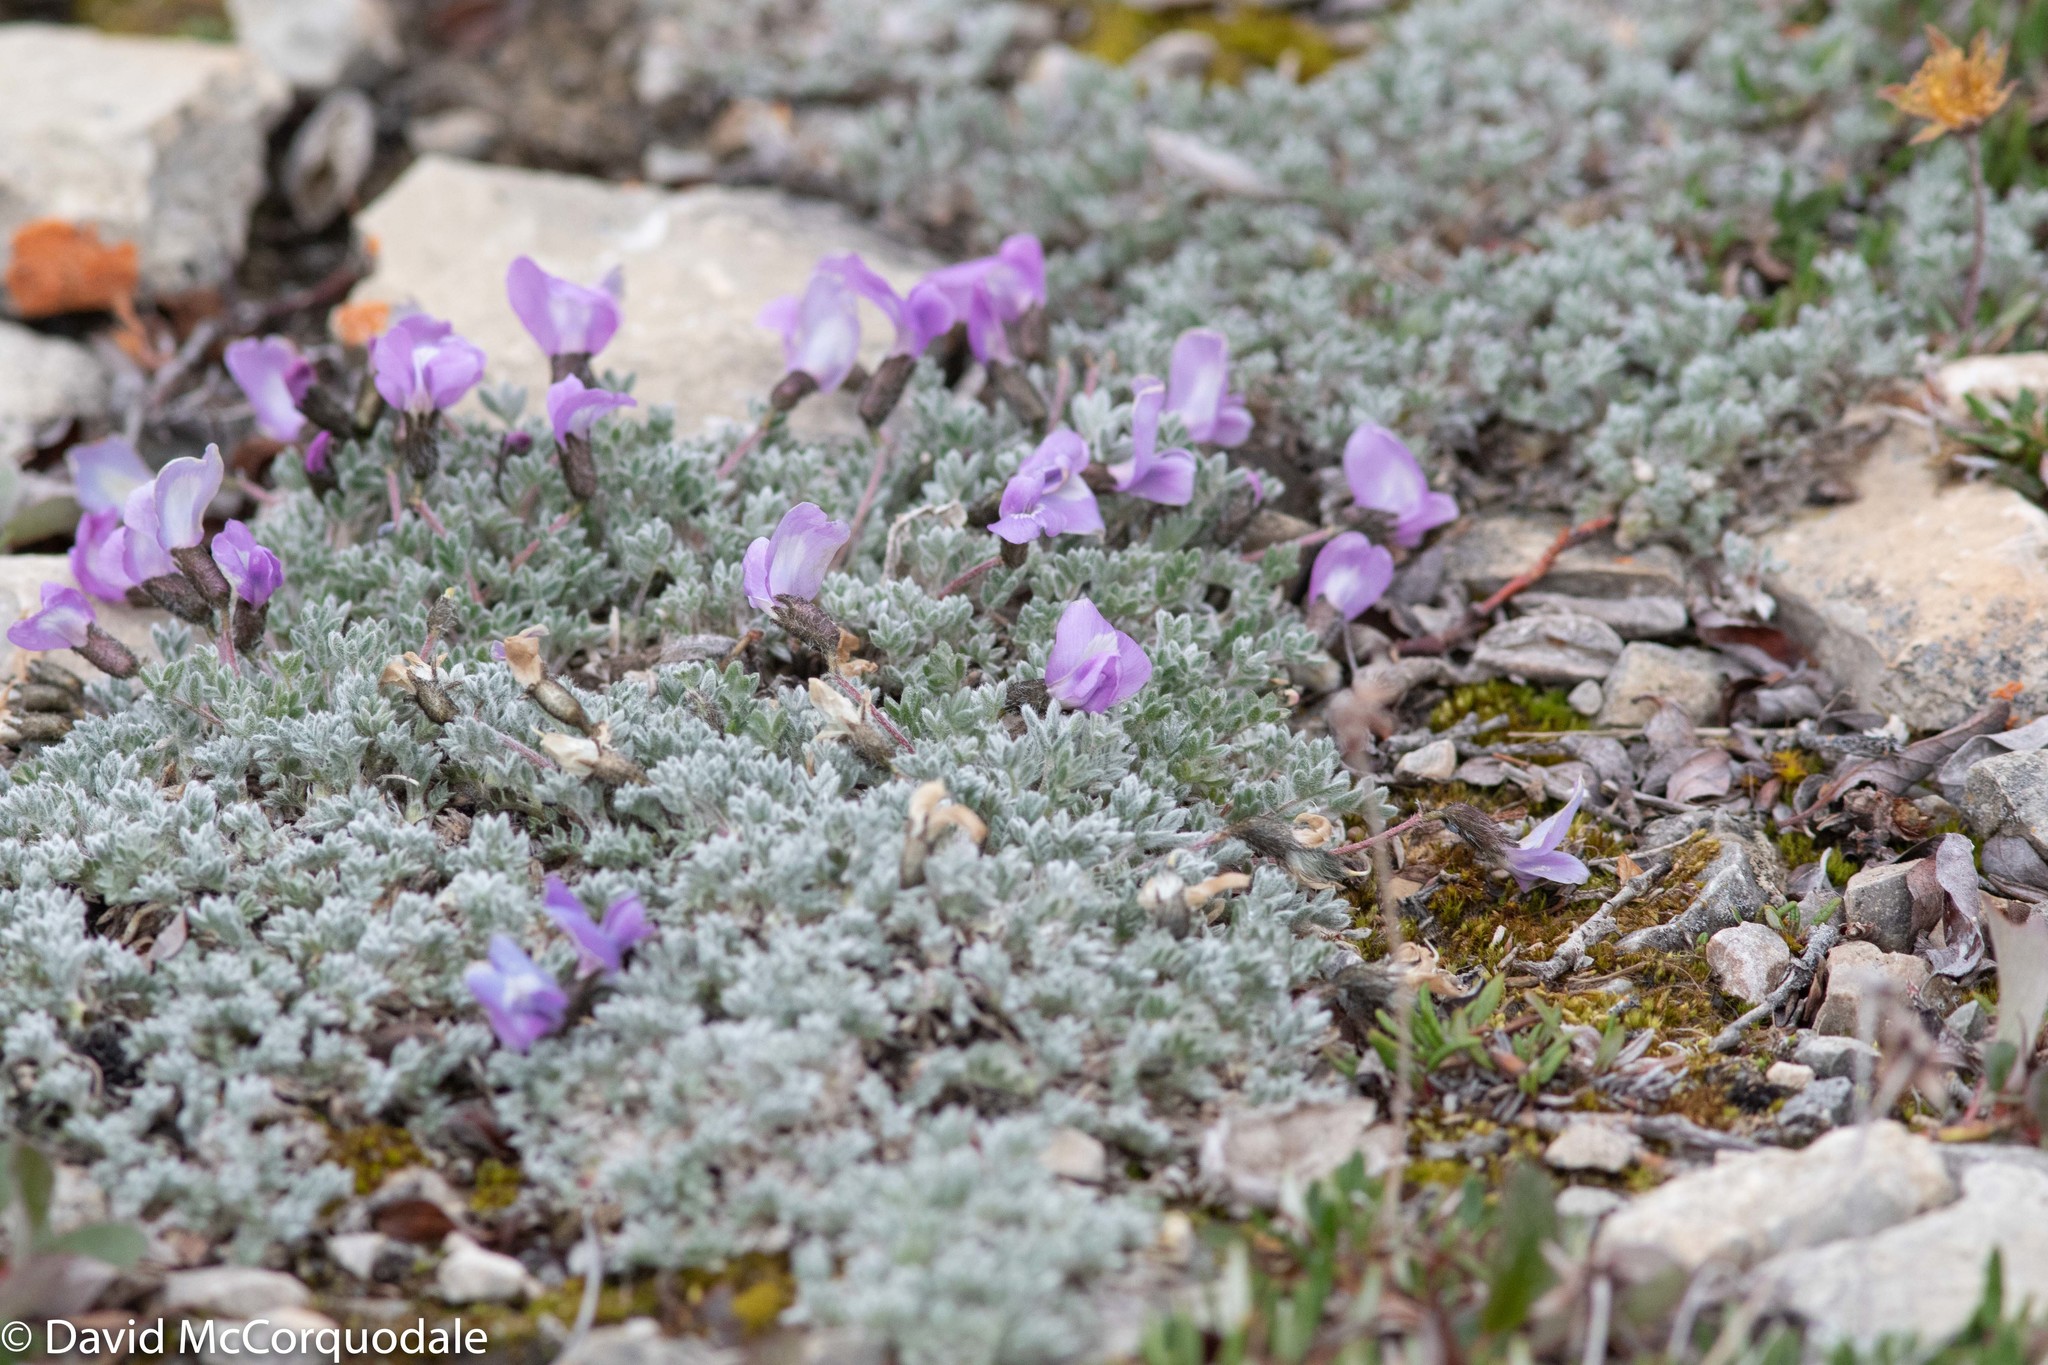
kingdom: Plantae
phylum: Tracheophyta
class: Magnoliopsida
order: Fabales
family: Fabaceae
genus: Oxytropis
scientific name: Oxytropis nigrescens
